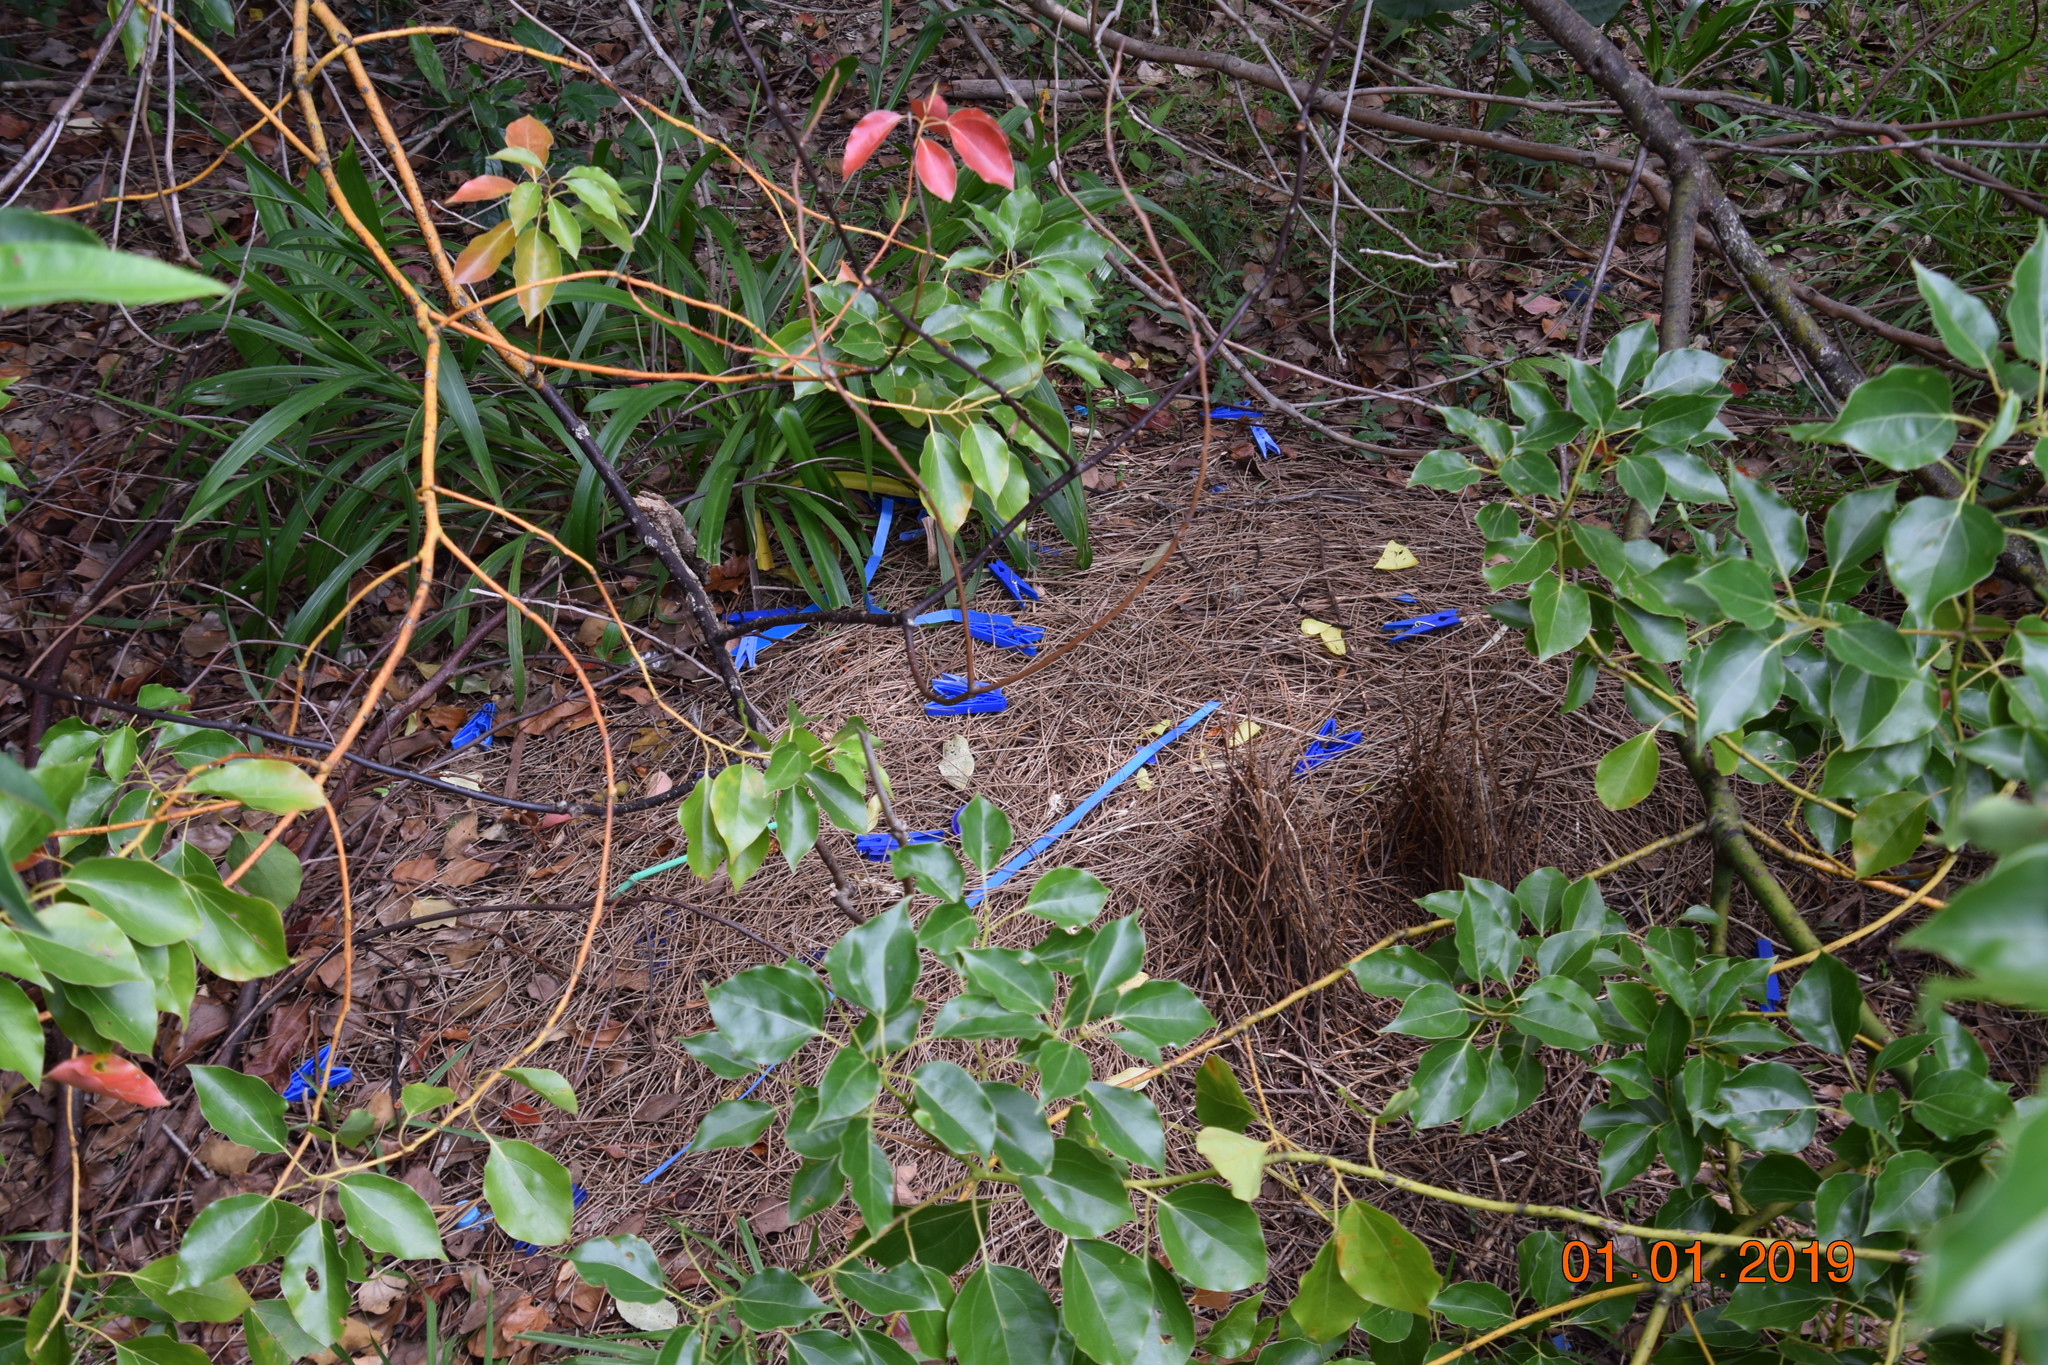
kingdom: Animalia
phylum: Chordata
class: Aves
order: Passeriformes
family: Ptilonorhynchidae
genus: Ptilonorhynchus
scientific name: Ptilonorhynchus violaceus
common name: Satin bowerbird
